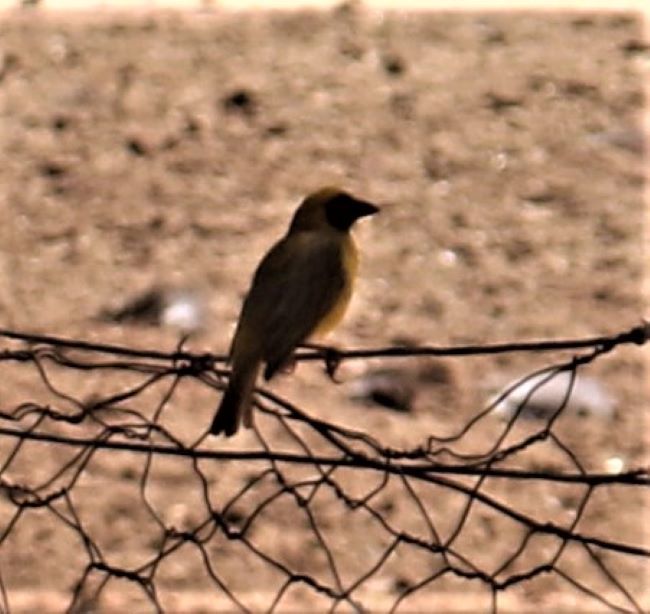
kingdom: Animalia
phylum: Chordata
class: Aves
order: Passeriformes
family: Ploceidae
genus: Ploceus
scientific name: Ploceus velatus
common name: Southern masked weaver
